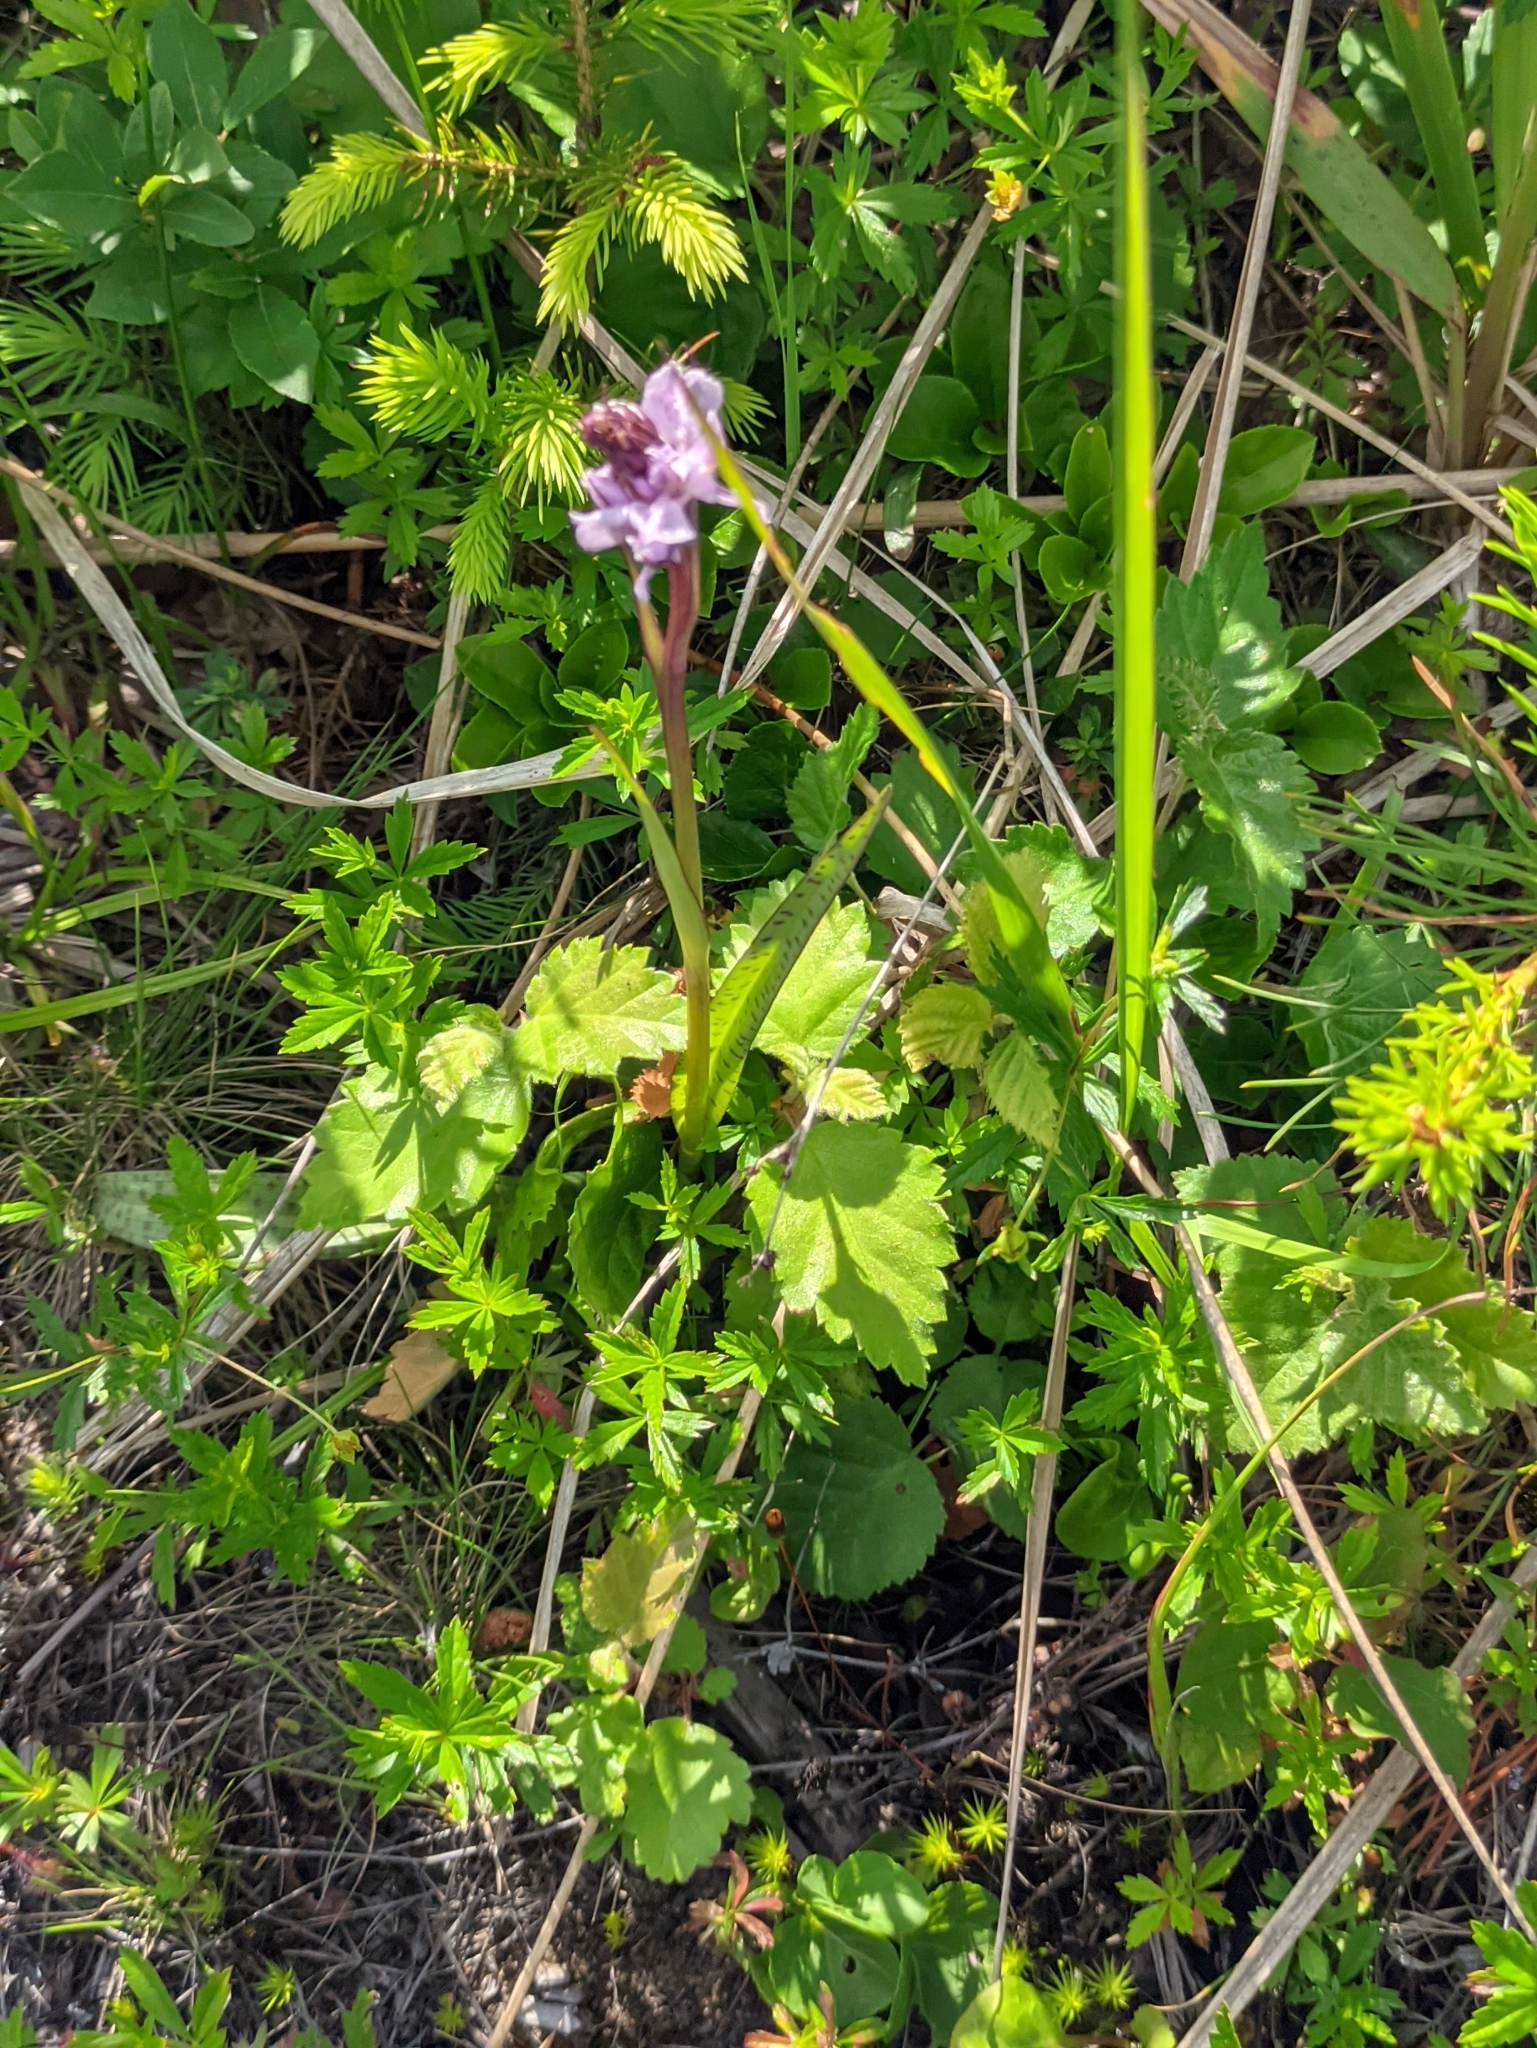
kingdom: Plantae
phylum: Tracheophyta
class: Liliopsida
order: Asparagales
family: Orchidaceae
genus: Dactylorhiza
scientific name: Dactylorhiza maculata
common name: Heath spotted-orchid
